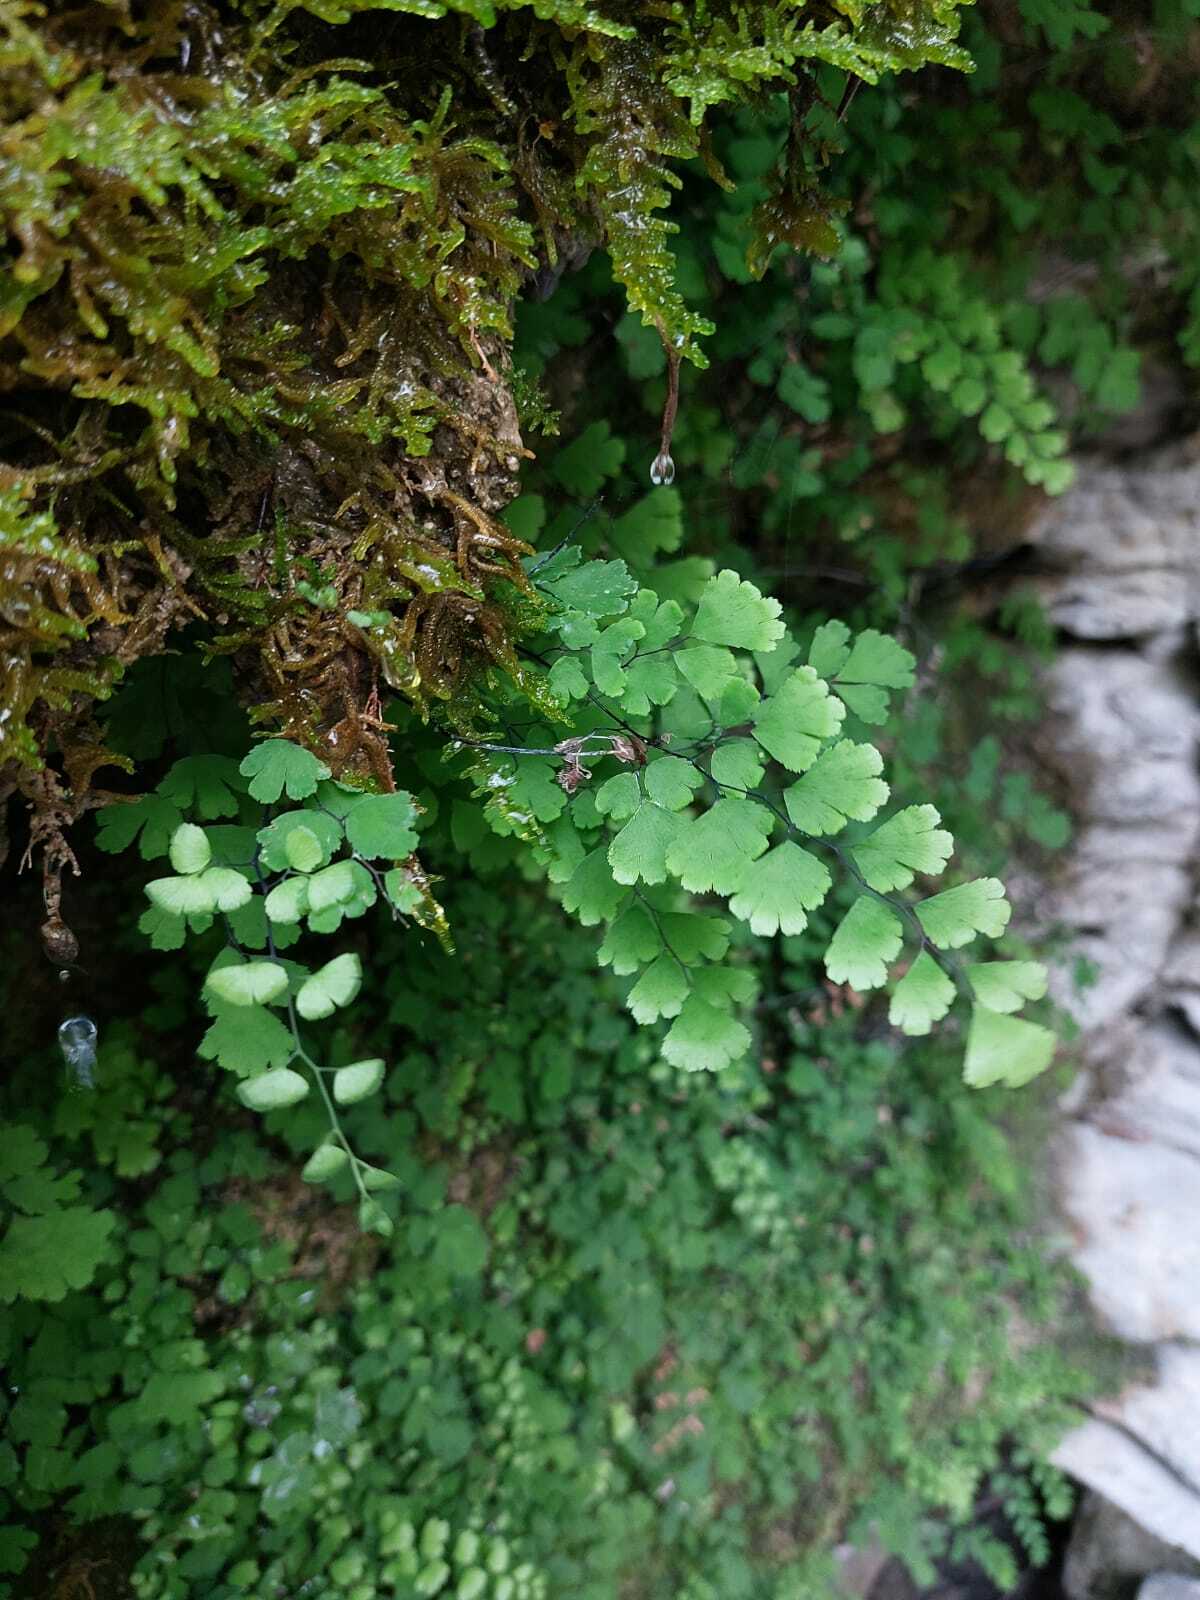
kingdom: Plantae
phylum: Tracheophyta
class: Polypodiopsida
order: Polypodiales
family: Pteridaceae
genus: Adiantum
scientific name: Adiantum capillus-veneris
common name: Maidenhair fern
